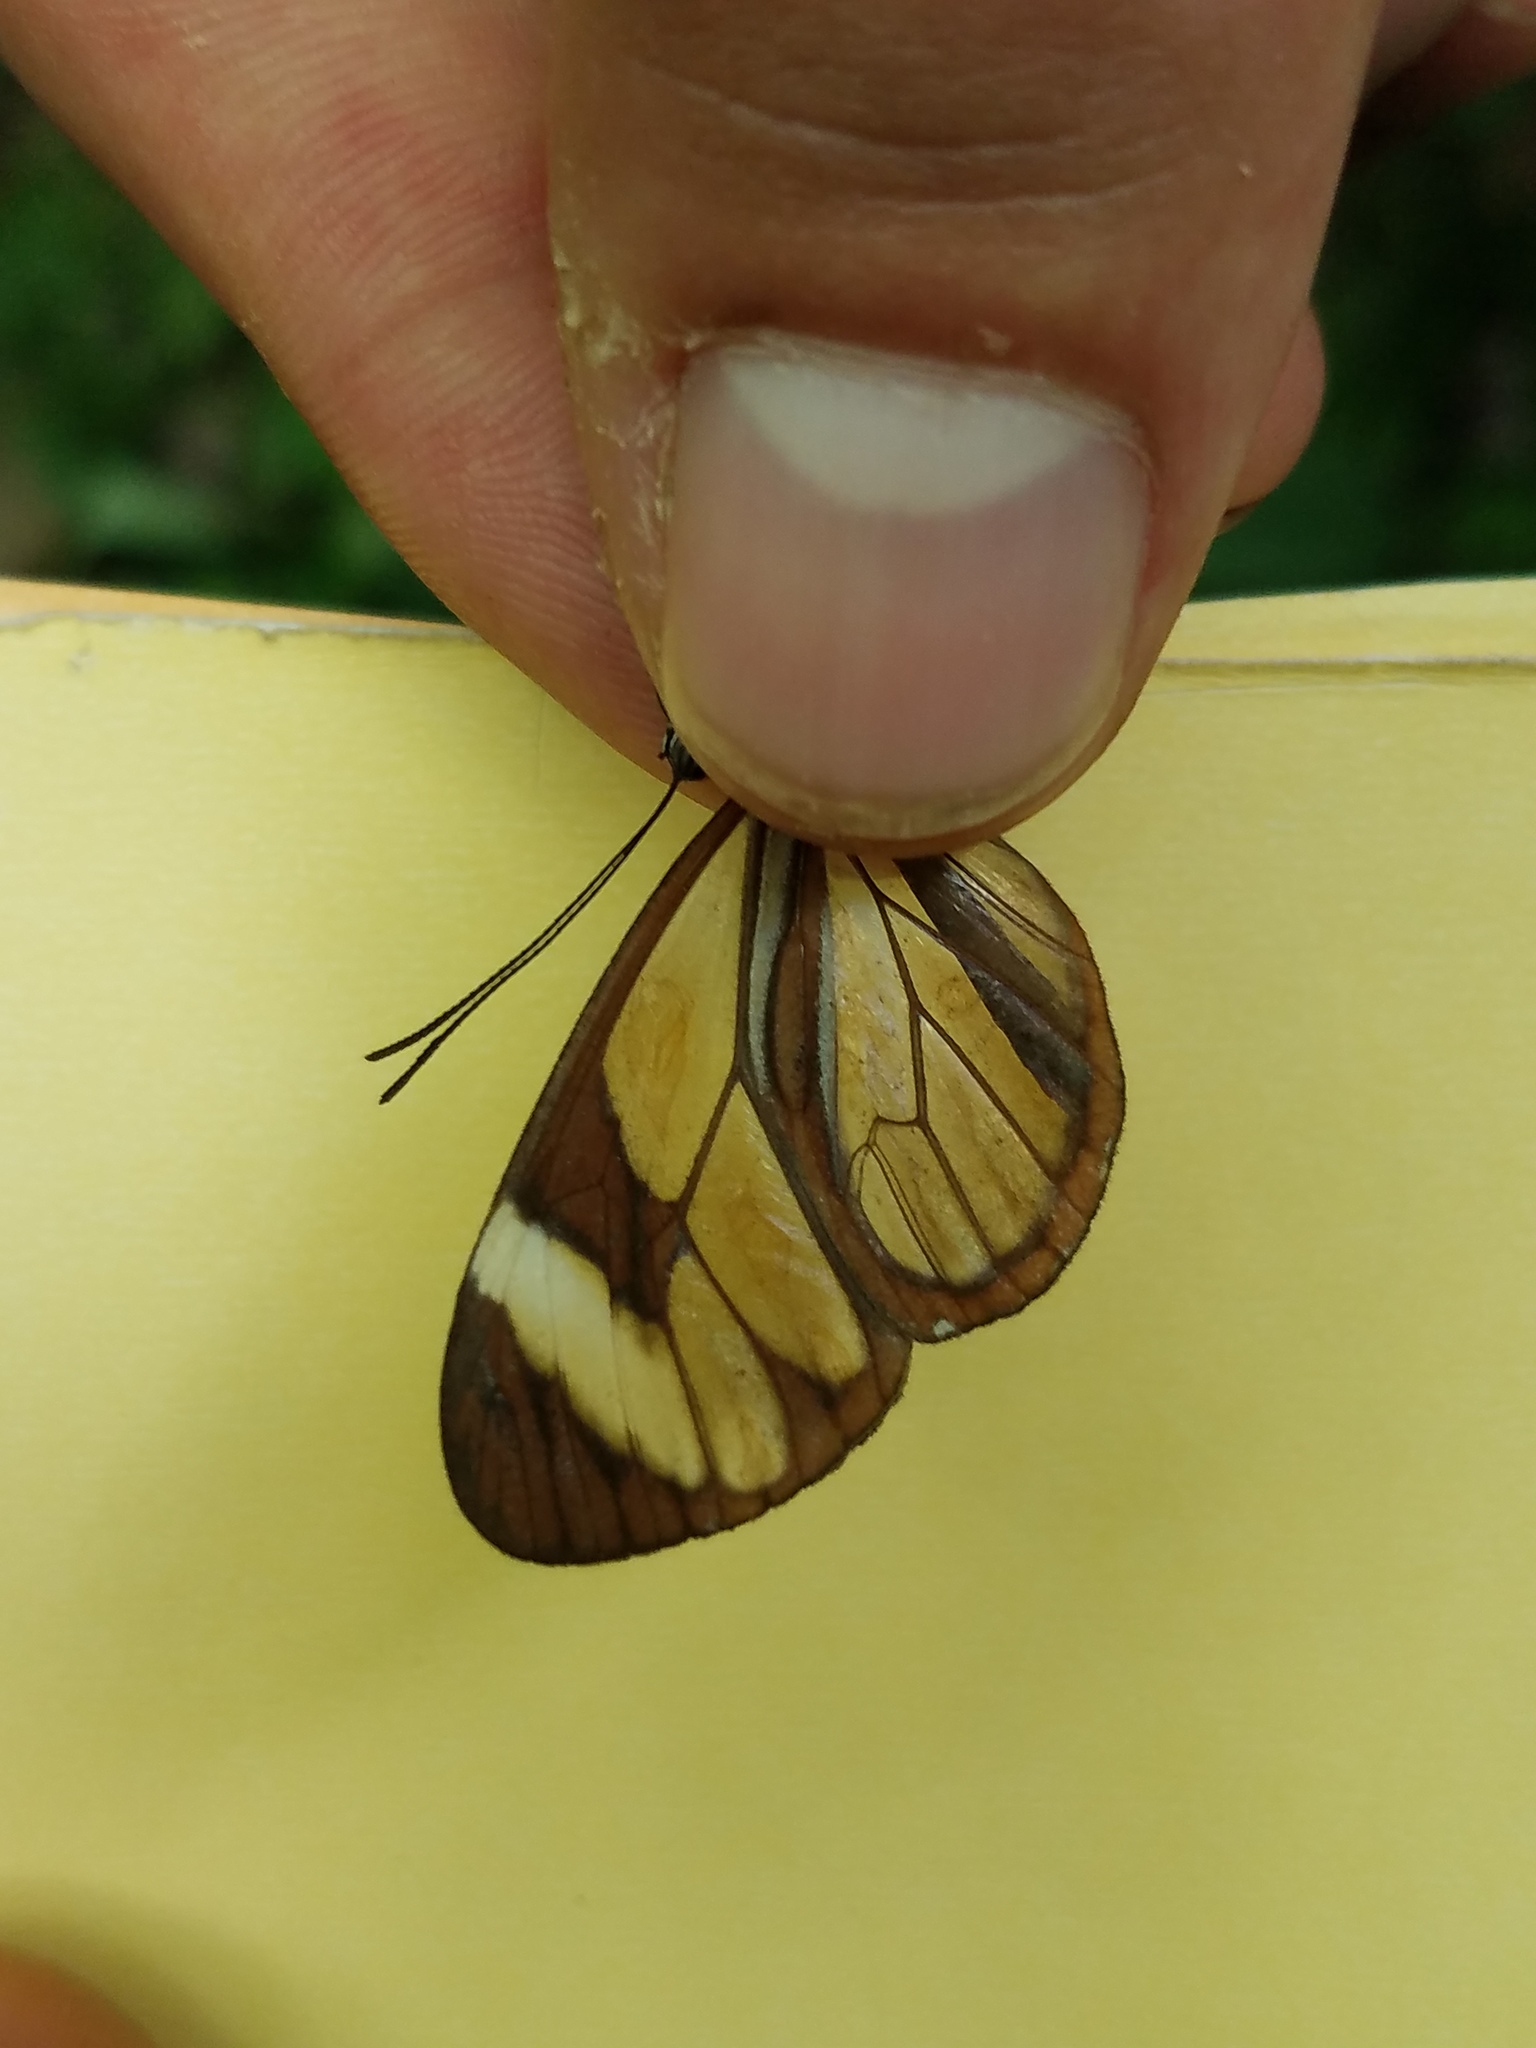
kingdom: Animalia
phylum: Arthropoda
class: Insecta
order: Lepidoptera
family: Nymphalidae
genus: Ithomia
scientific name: Ithomia patilla
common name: Patilla clearwing
